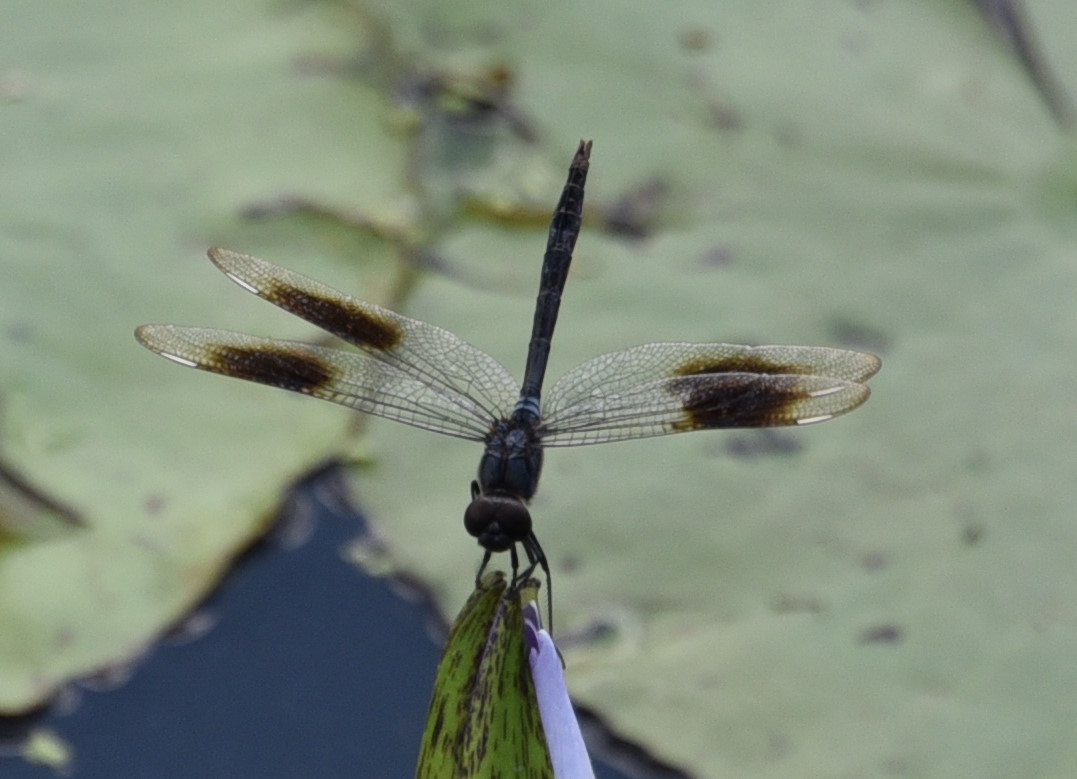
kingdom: Animalia
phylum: Arthropoda
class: Insecta
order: Odonata
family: Libellulidae
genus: Brachymesia
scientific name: Brachymesia gravida
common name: Four-spotted pennant
